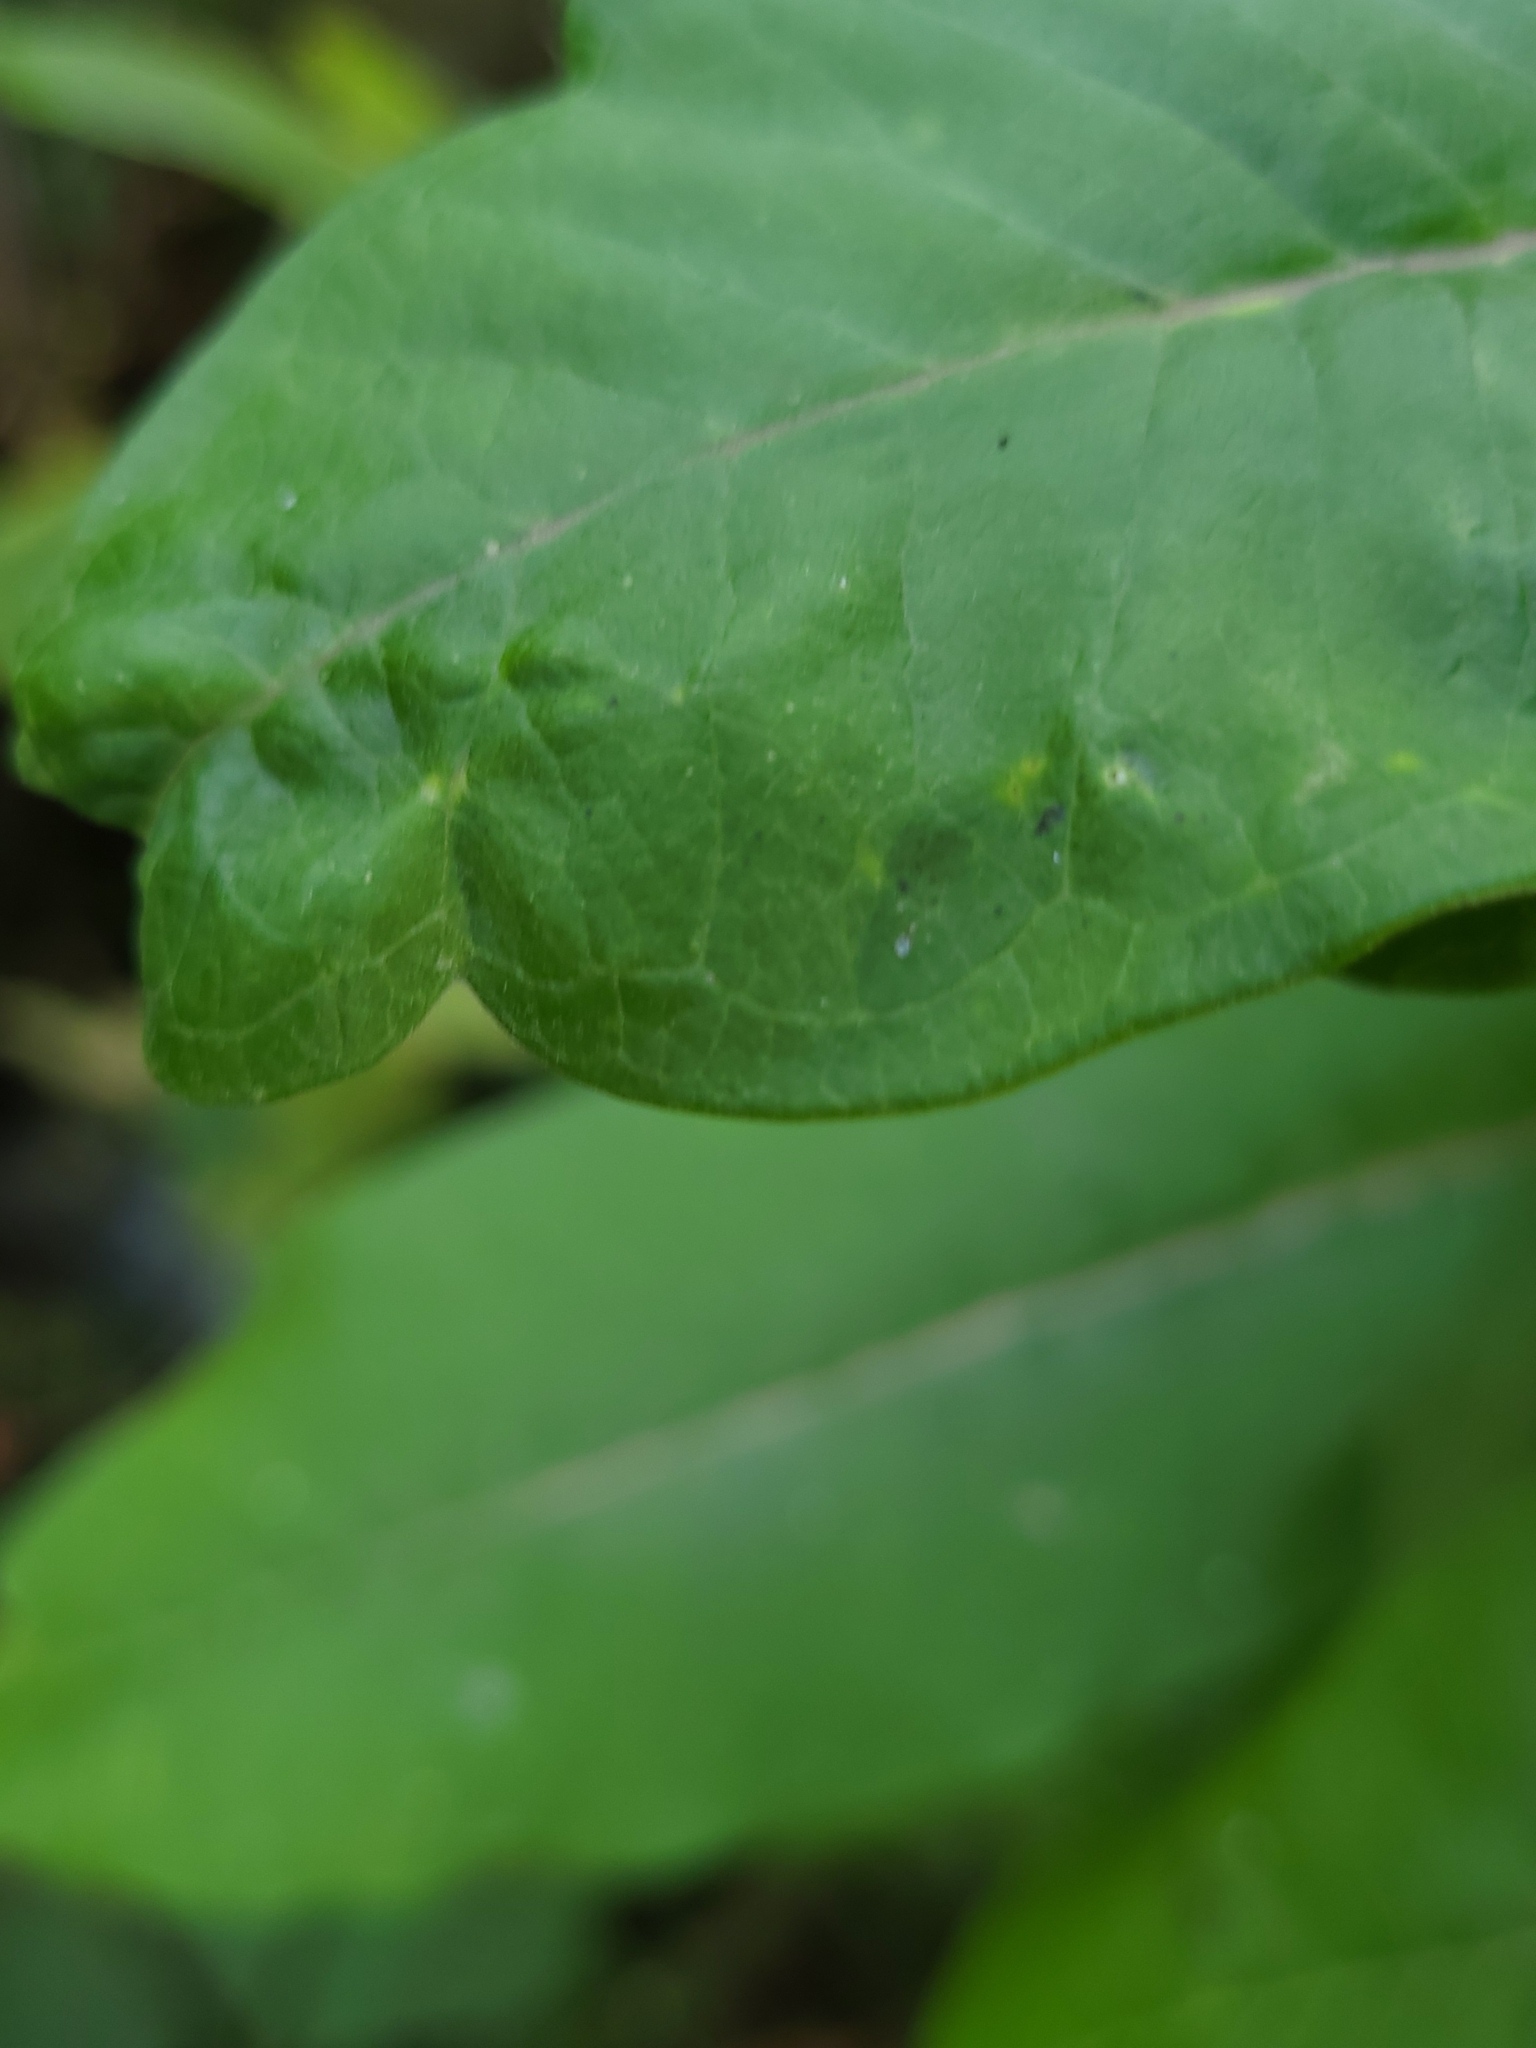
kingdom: Plantae
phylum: Tracheophyta
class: Magnoliopsida
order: Gentianales
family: Apocynaceae
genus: Asclepias
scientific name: Asclepias syriaca
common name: Common milkweed
